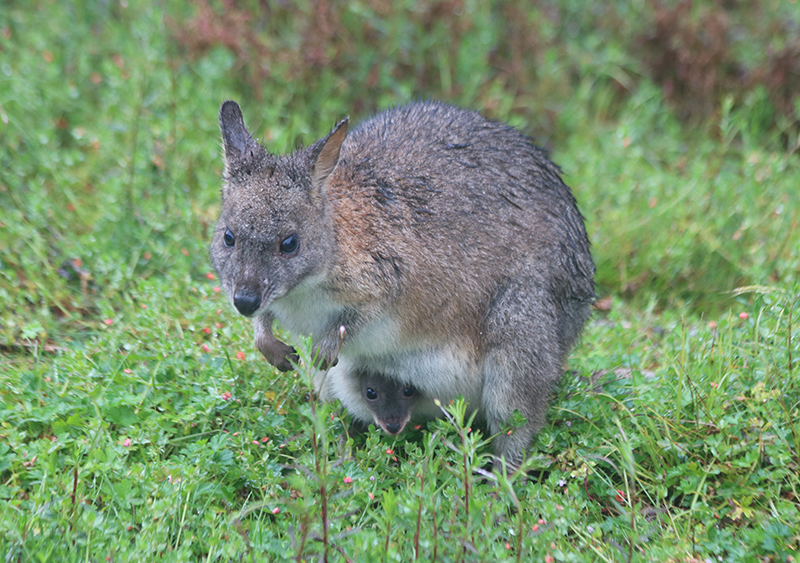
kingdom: Animalia
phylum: Chordata
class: Mammalia
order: Diprotodontia
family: Macropodidae
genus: Thylogale
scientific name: Thylogale thetis
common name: Red-necked pademelon
